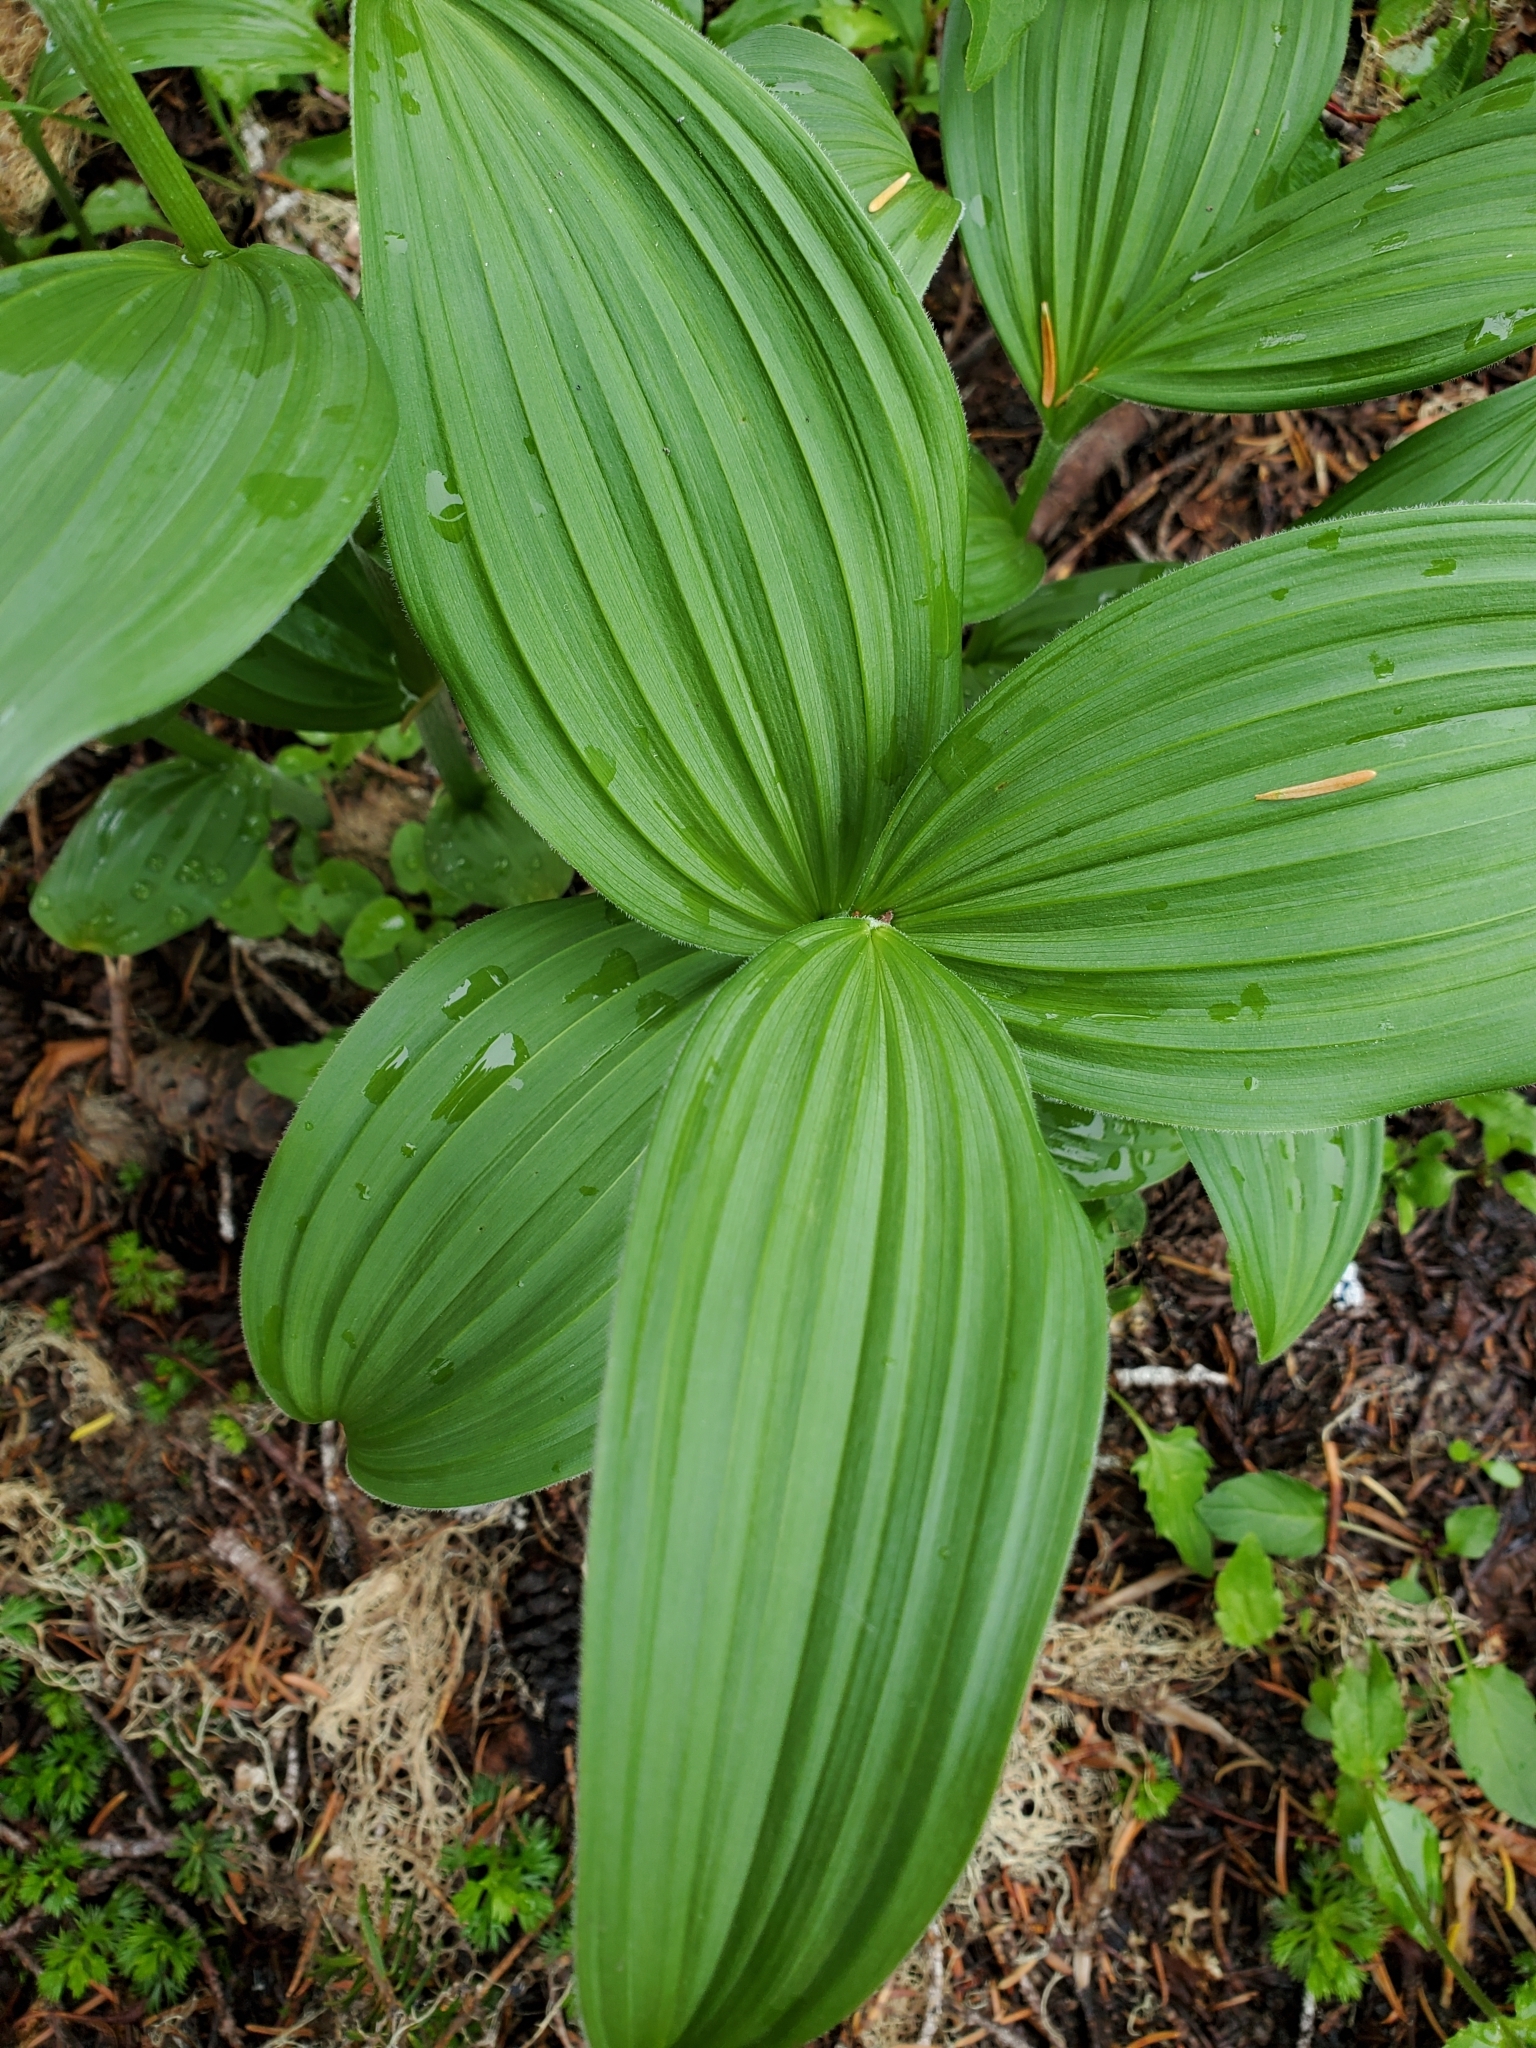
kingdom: Plantae
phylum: Tracheophyta
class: Liliopsida
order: Liliales
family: Melanthiaceae
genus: Veratrum
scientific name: Veratrum viride
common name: American false hellebore
